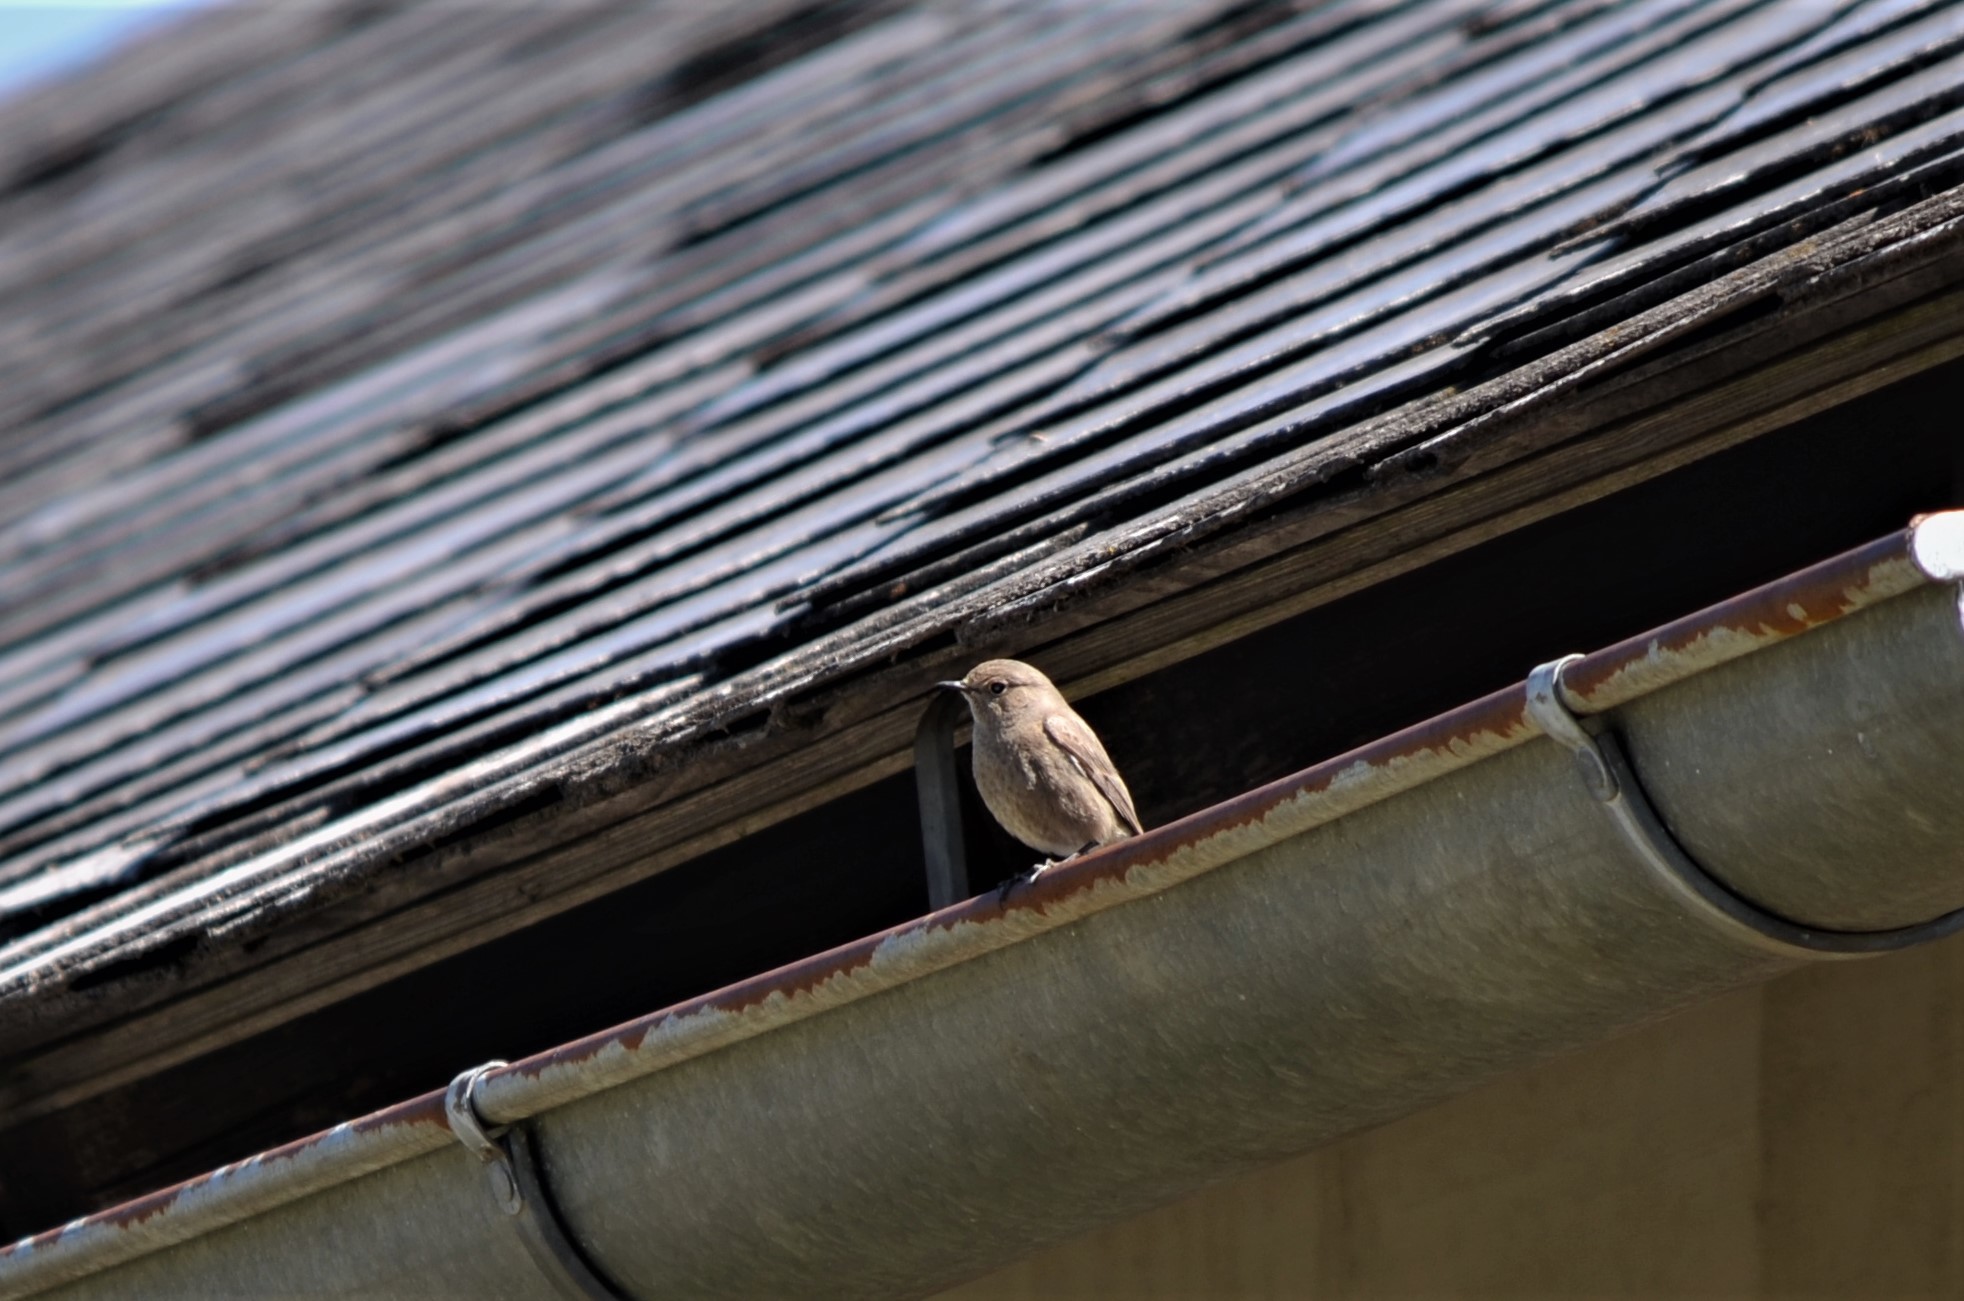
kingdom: Animalia
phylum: Chordata
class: Aves
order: Passeriformes
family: Muscicapidae
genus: Phoenicurus
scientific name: Phoenicurus ochruros
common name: Black redstart
